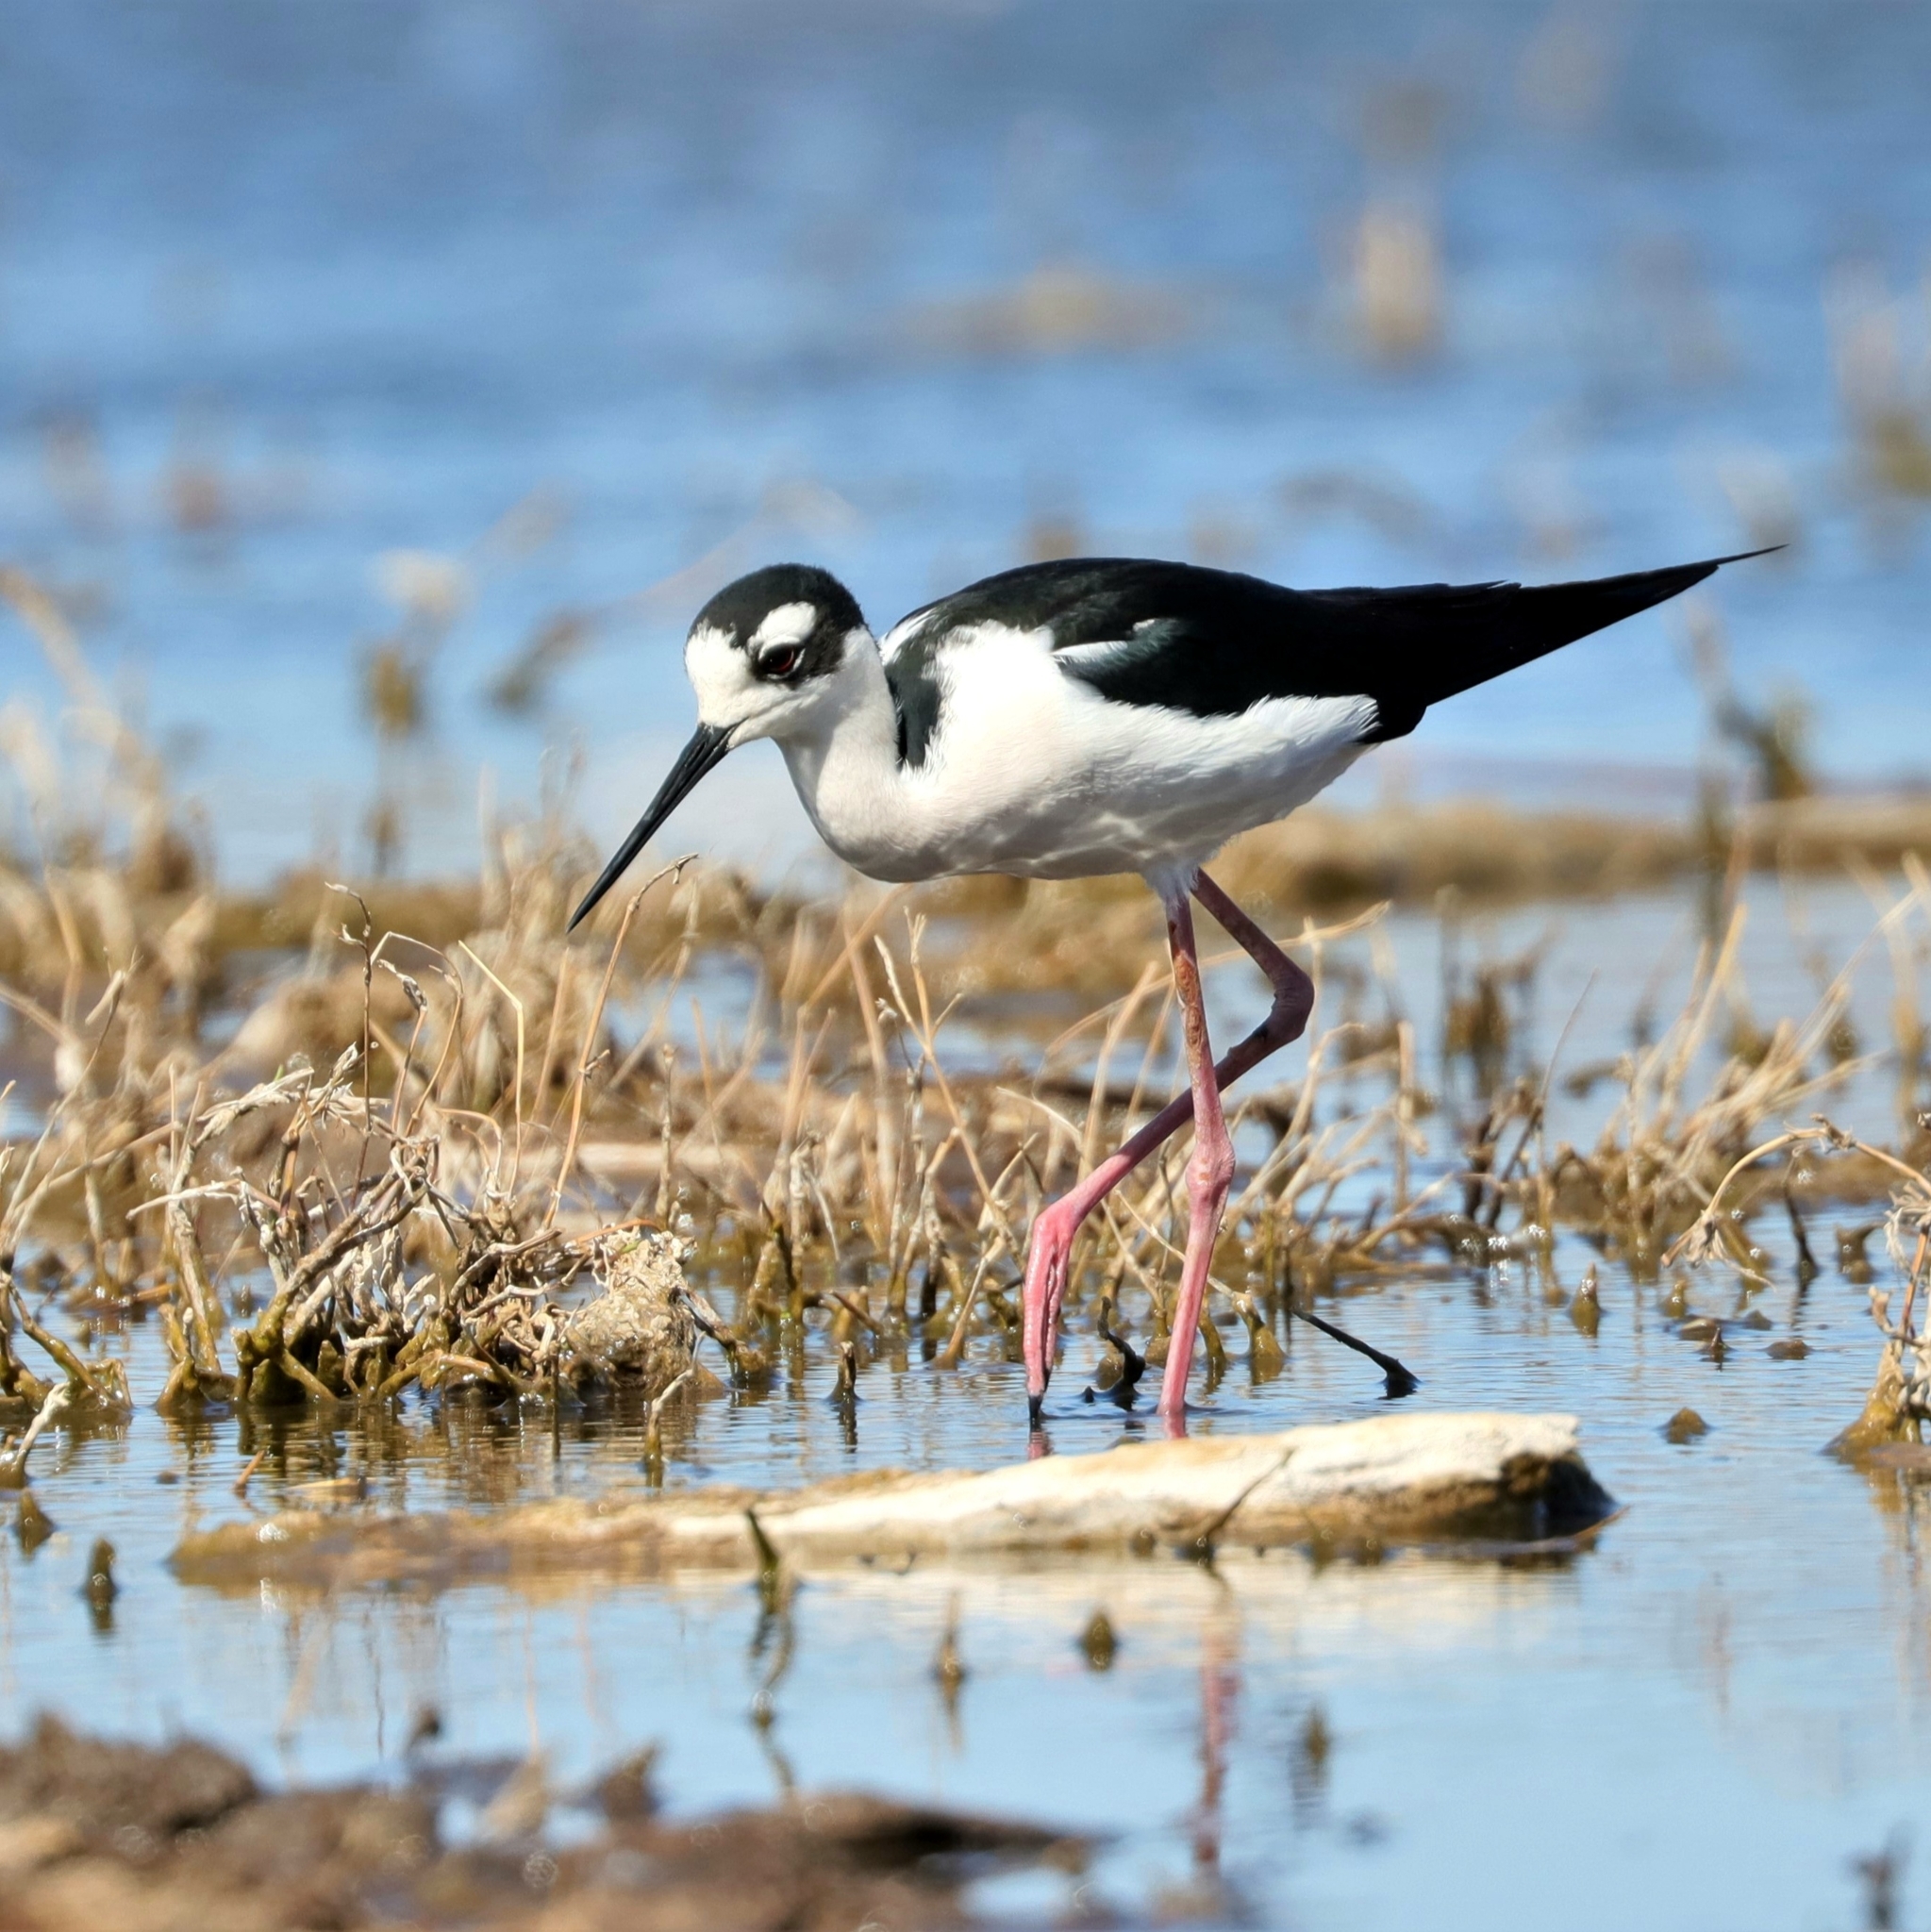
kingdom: Animalia
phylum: Chordata
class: Aves
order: Charadriiformes
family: Recurvirostridae
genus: Himantopus
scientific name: Himantopus mexicanus
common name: Black-necked stilt
